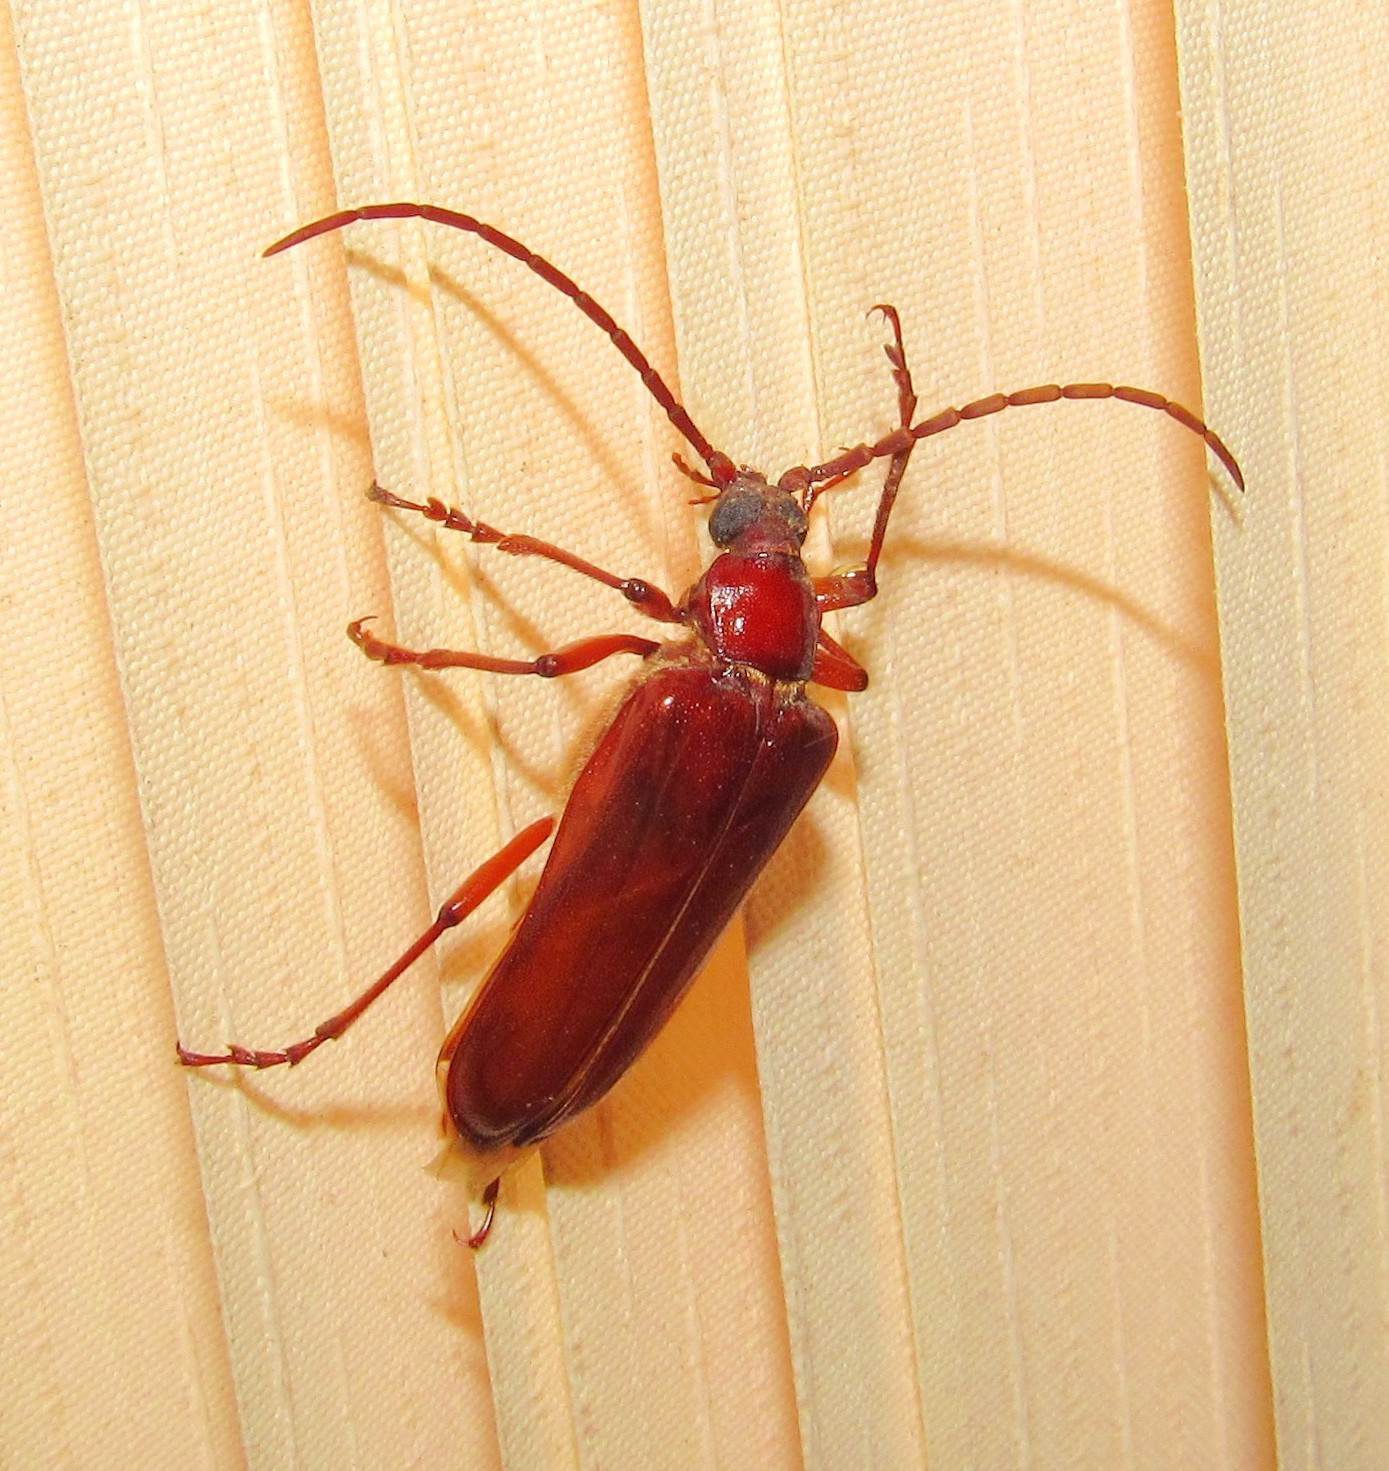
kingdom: Animalia
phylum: Arthropoda
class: Insecta
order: Coleoptera
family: Cerambycidae
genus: Mysteria
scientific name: Mysteria cylindripennis
